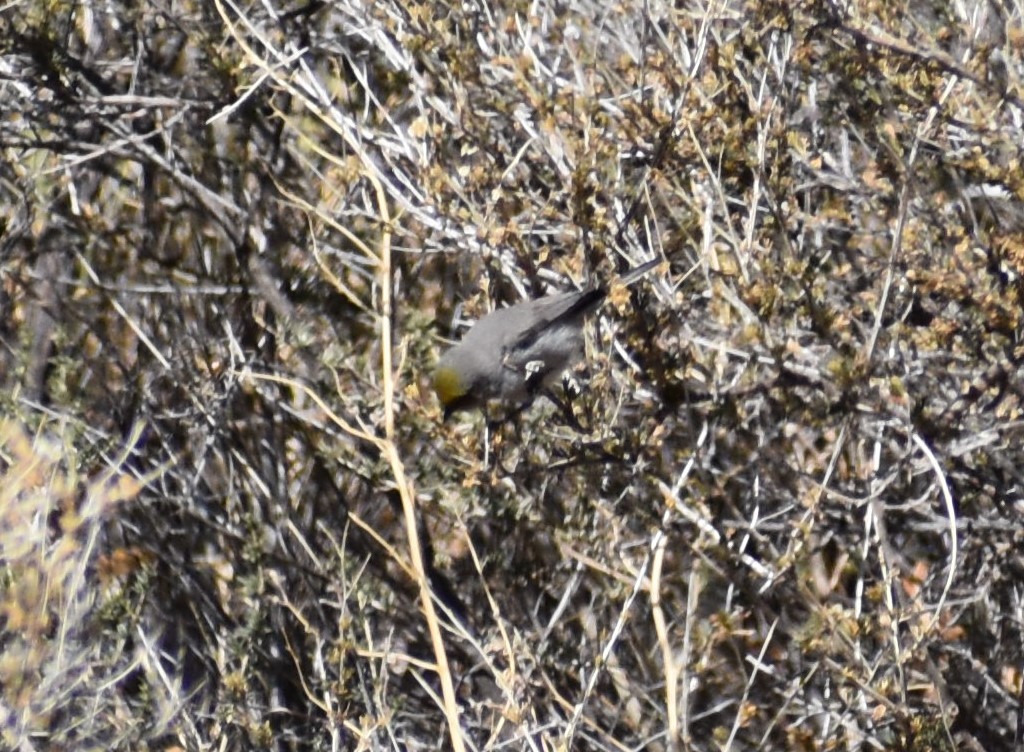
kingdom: Animalia
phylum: Chordata
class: Aves
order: Passeriformes
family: Remizidae
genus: Auriparus
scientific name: Auriparus flaviceps
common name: Verdin
